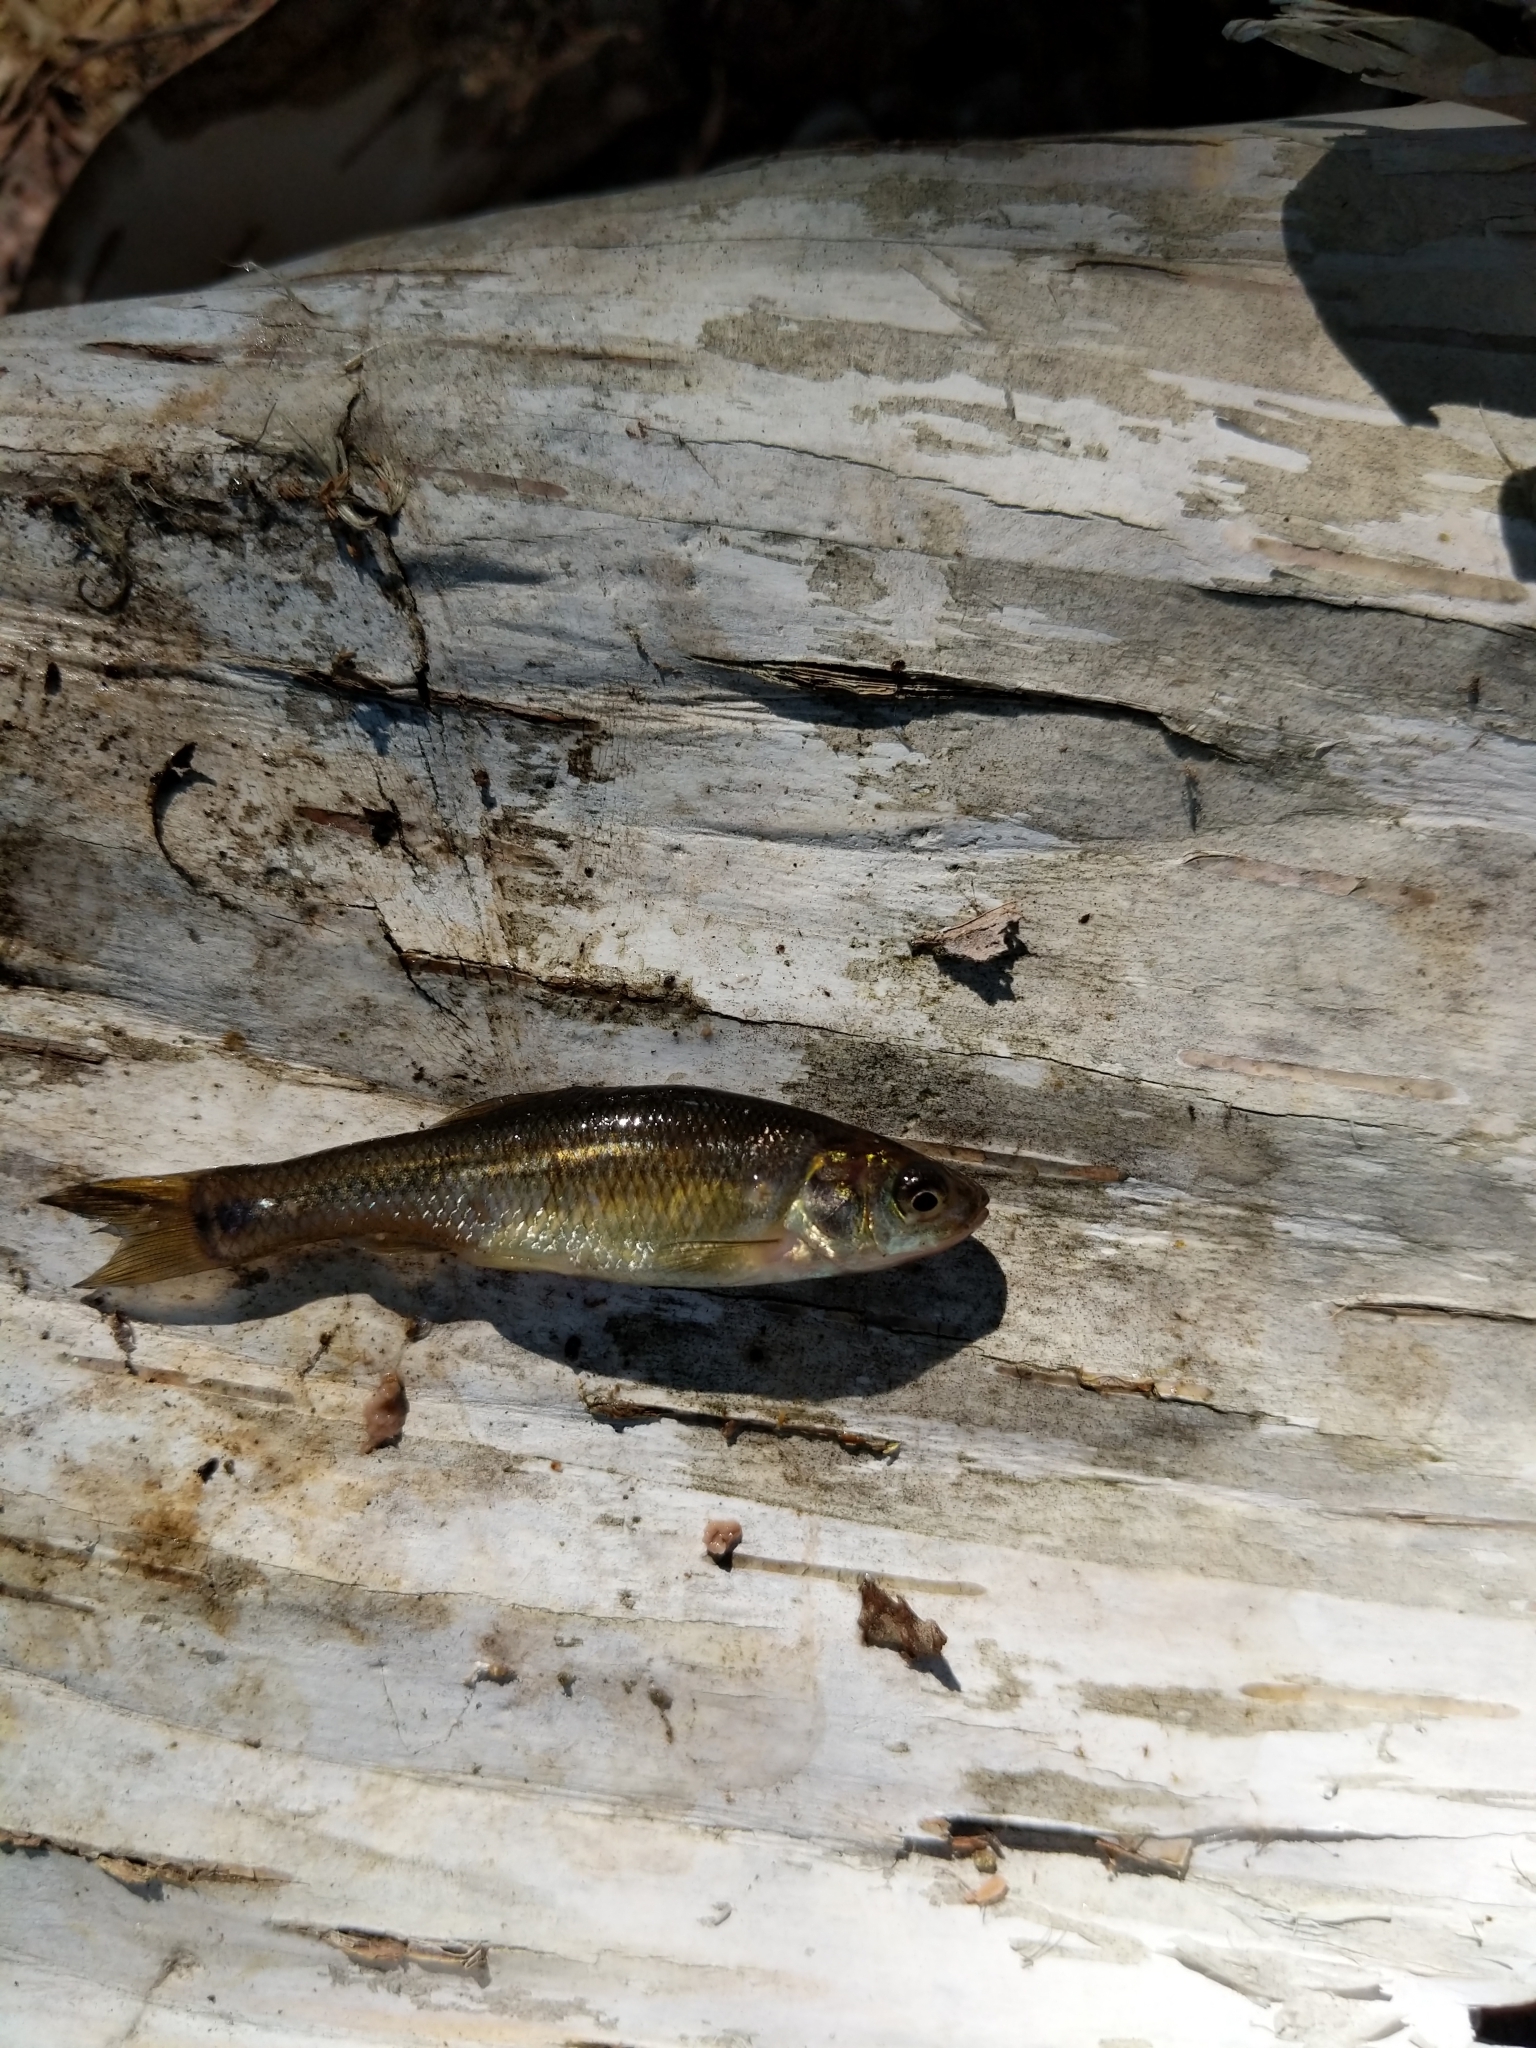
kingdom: Animalia
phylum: Chordata
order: Cypriniformes
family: Cyprinidae
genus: Pimephales
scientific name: Pimephales promelas
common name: Fathead minnow
